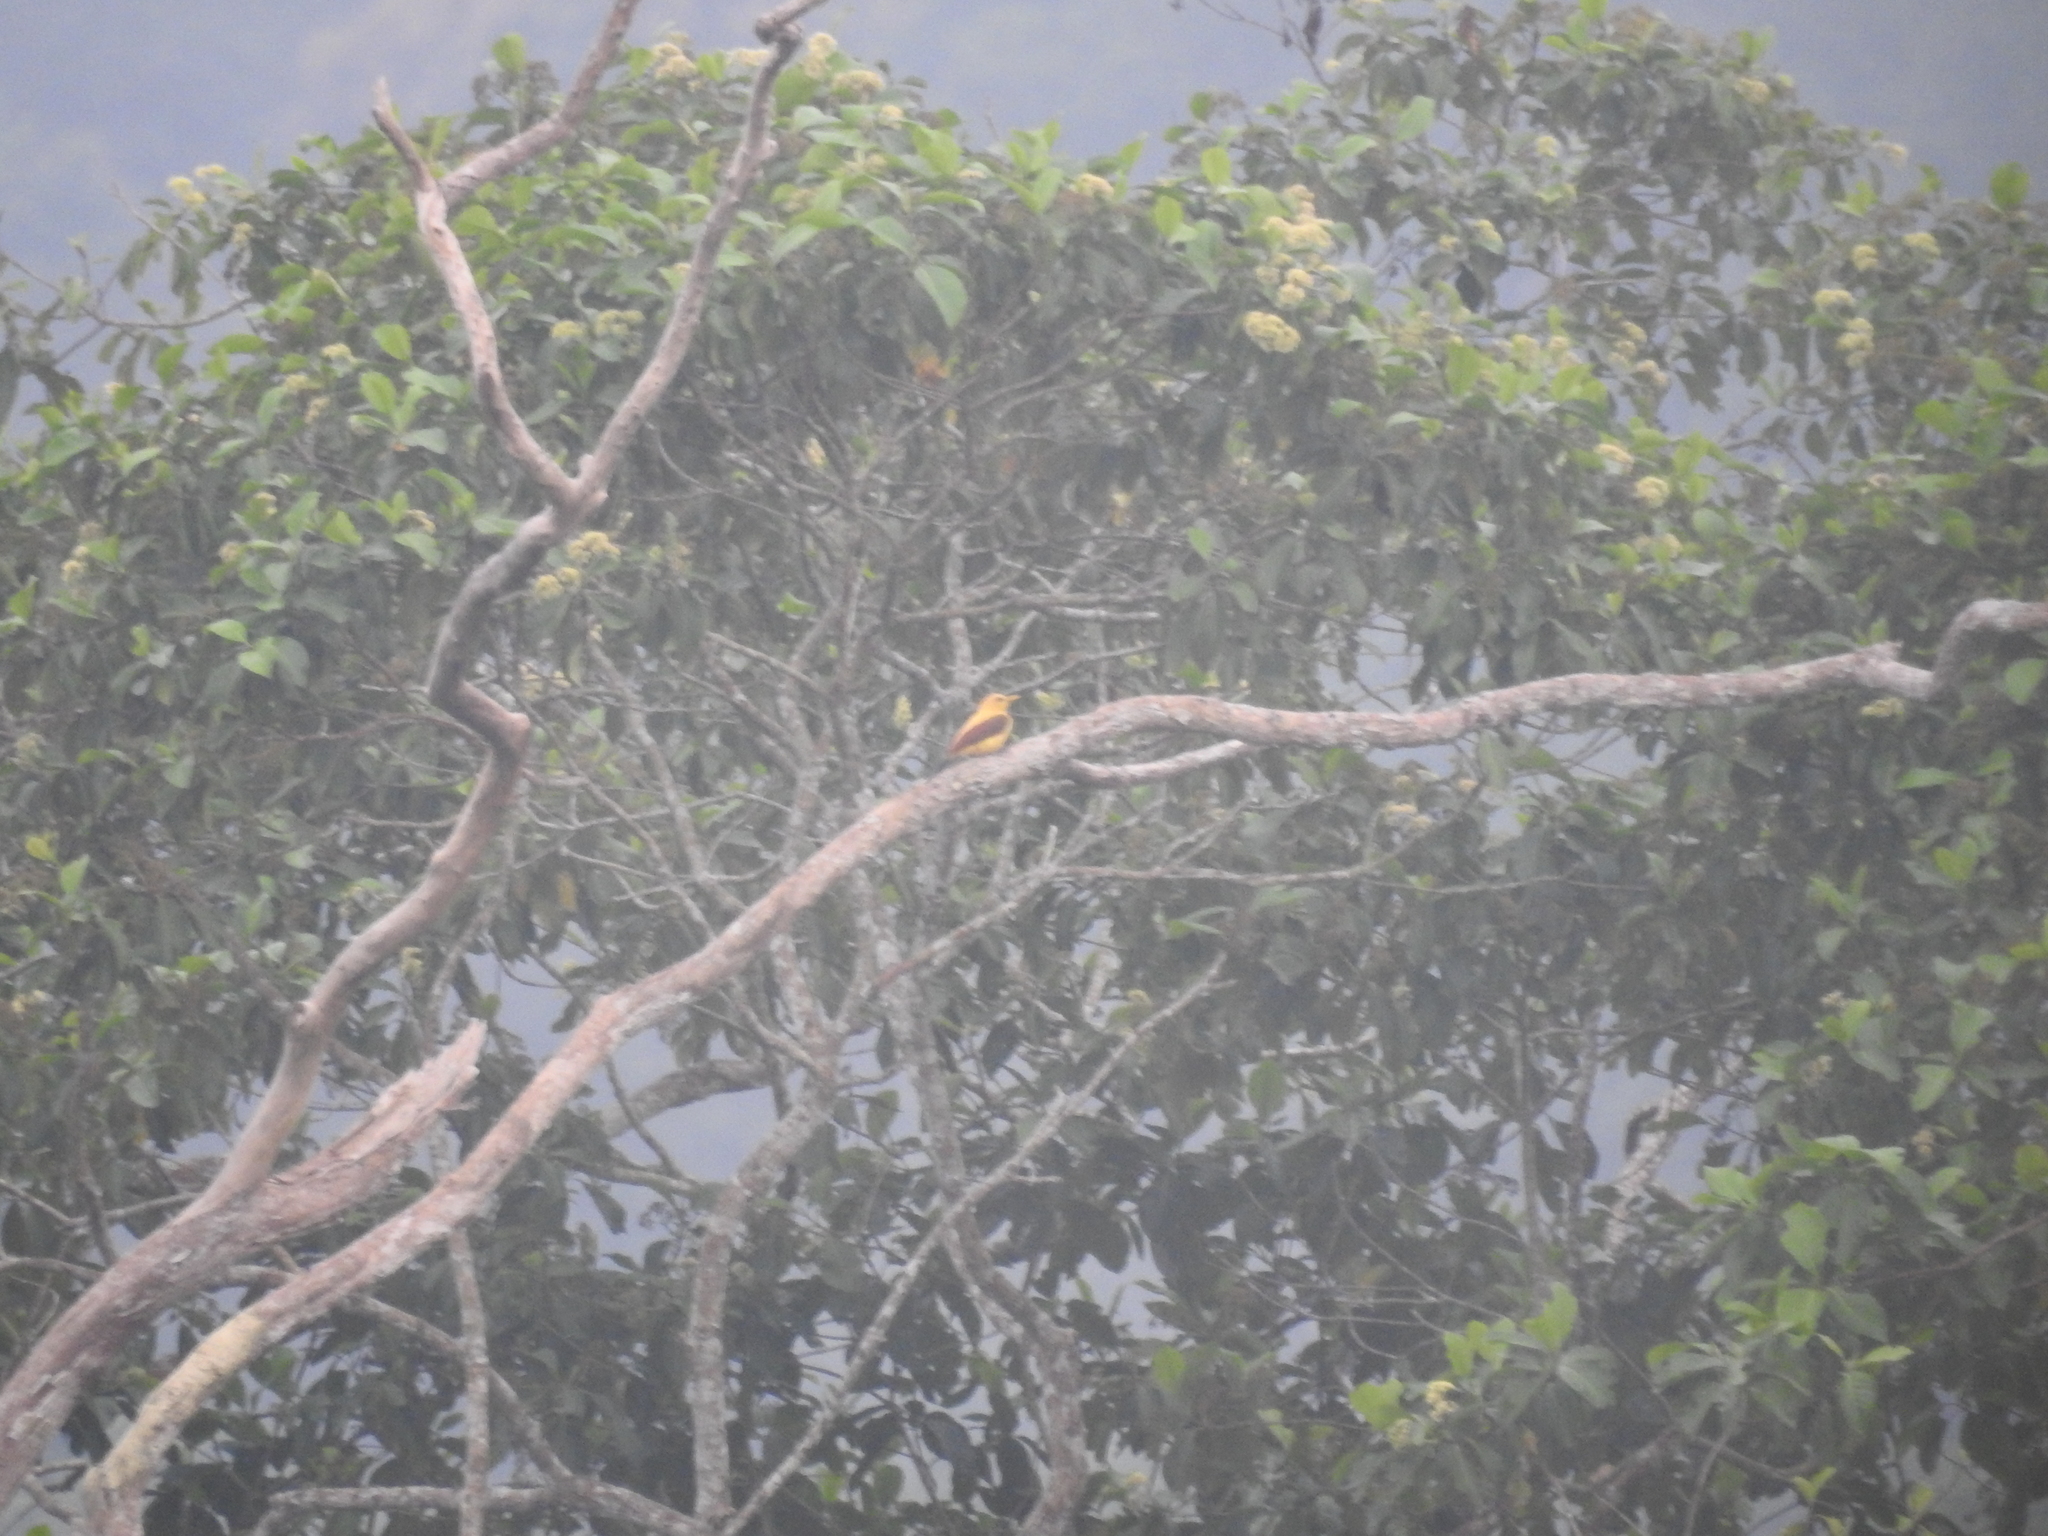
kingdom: Animalia
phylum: Chordata
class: Aves
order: Piciformes
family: Picidae
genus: Celeus
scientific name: Celeus flavus
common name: Cream-colored woodpecker
